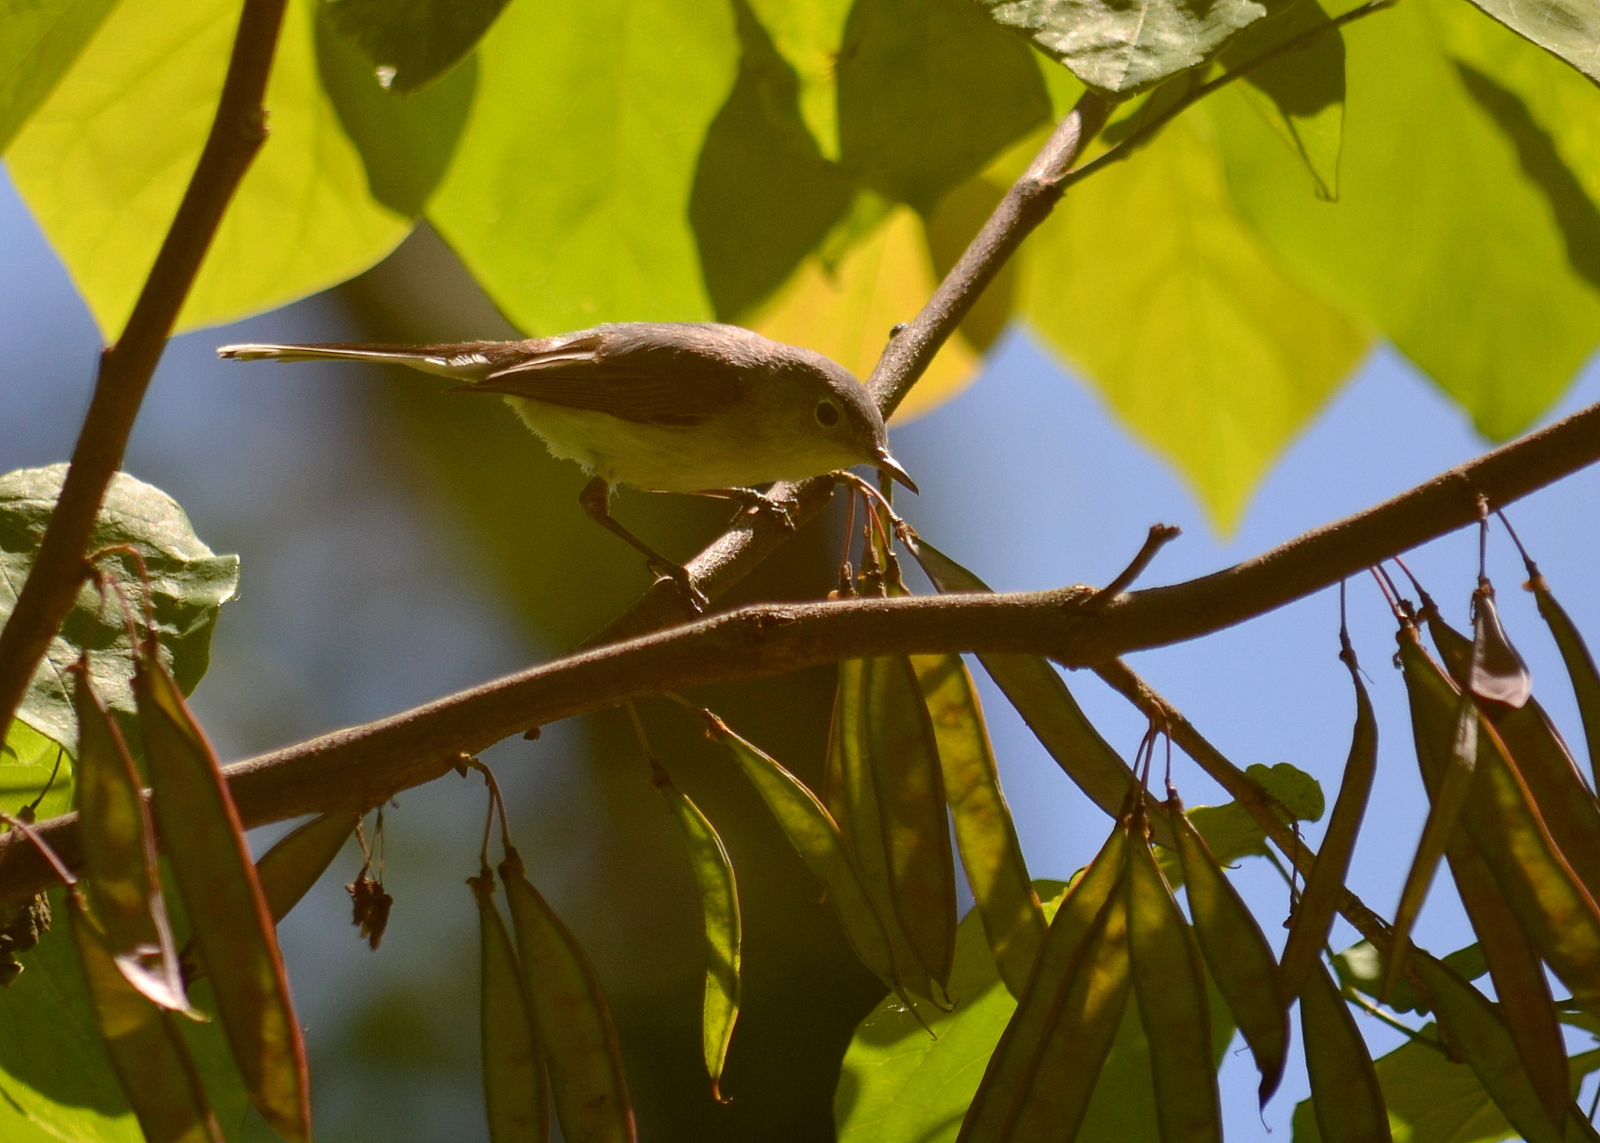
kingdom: Animalia
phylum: Chordata
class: Aves
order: Passeriformes
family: Polioptilidae
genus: Polioptila
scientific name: Polioptila caerulea
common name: Blue-gray gnatcatcher
